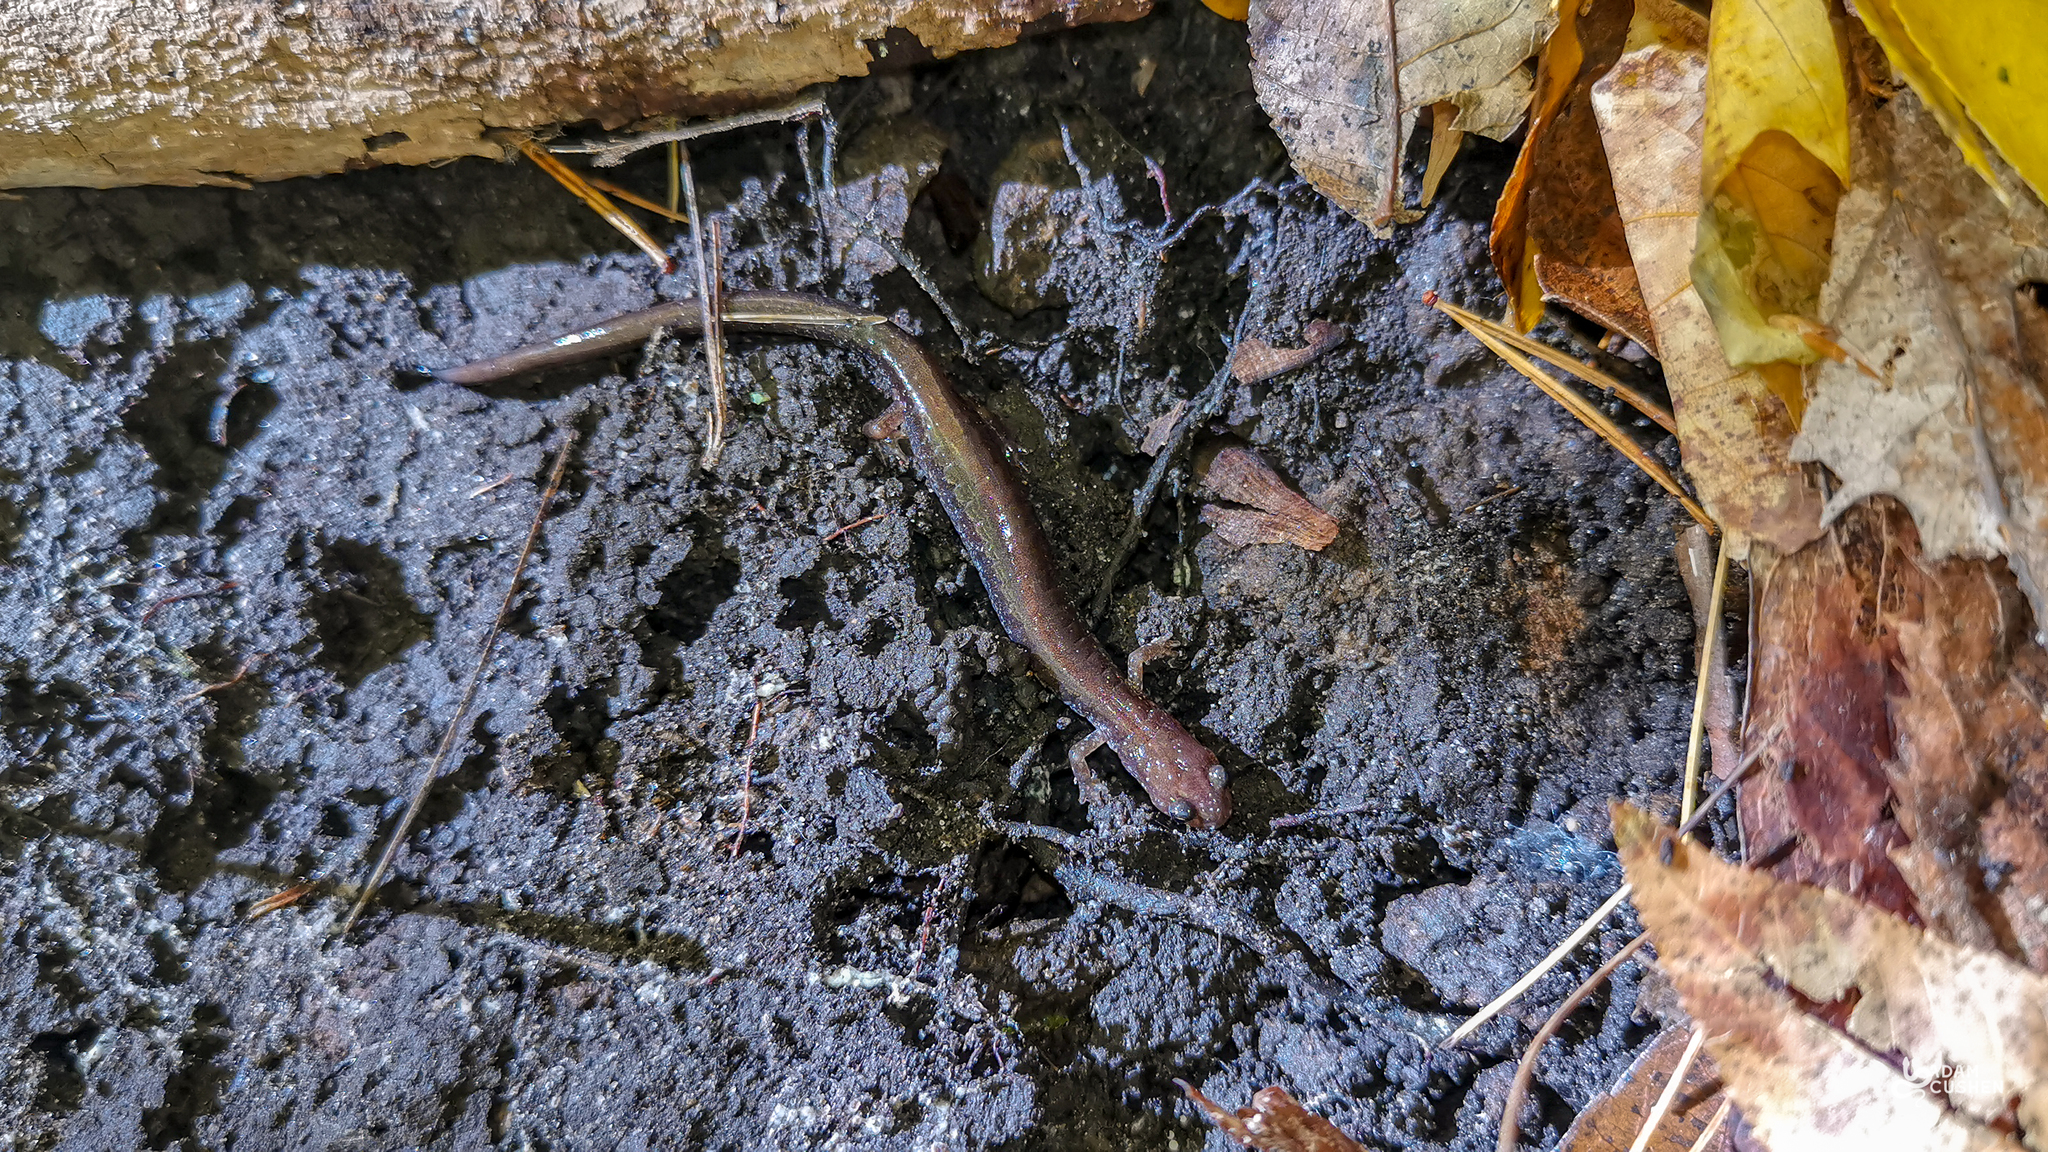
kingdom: Animalia
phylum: Chordata
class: Amphibia
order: Caudata
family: Plethodontidae
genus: Plethodon
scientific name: Plethodon cinereus
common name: Redback salamander
